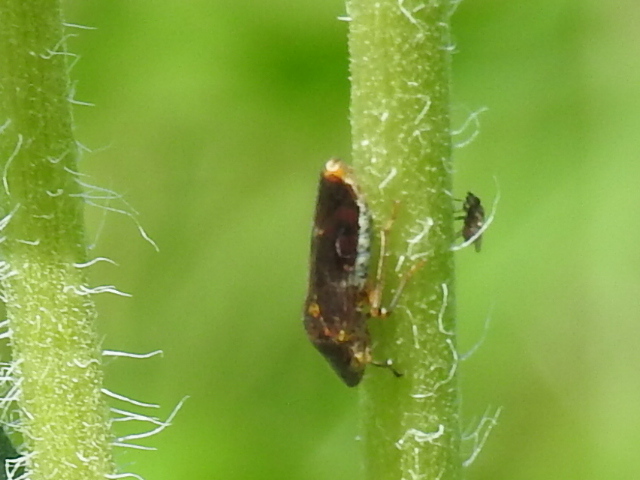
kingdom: Animalia
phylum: Arthropoda
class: Insecta
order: Hemiptera
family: Cicadellidae
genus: Homalodisca
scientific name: Homalodisca vitripennis
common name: Glassy-winged sharpshooter
